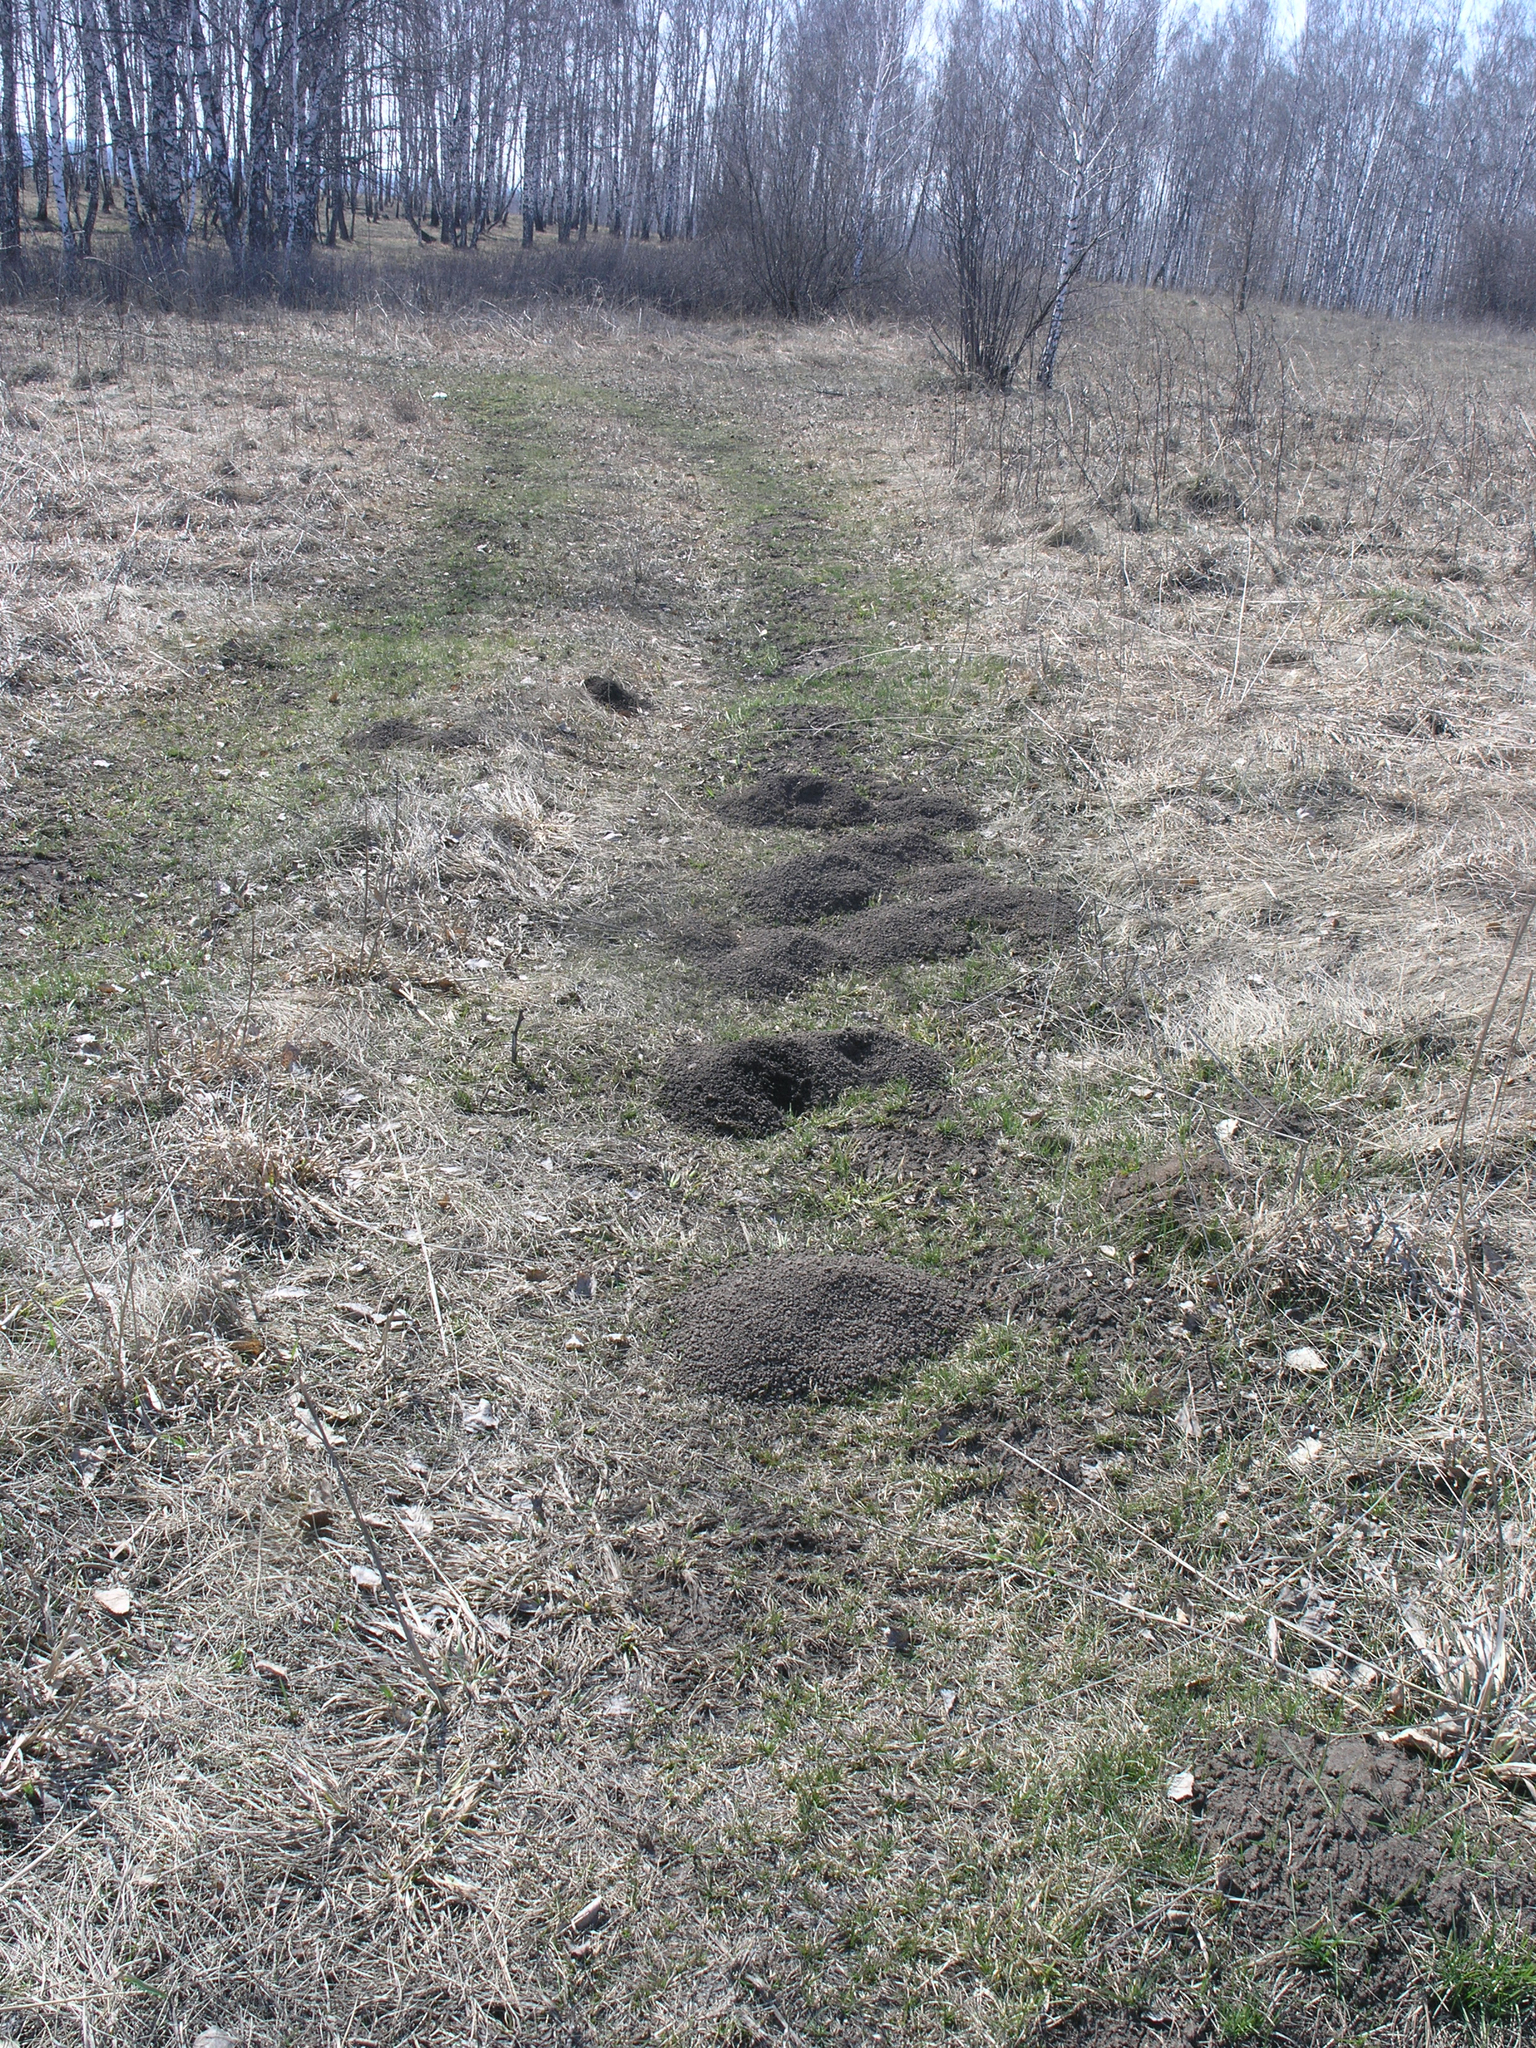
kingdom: Animalia
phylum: Chordata
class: Mammalia
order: Soricomorpha
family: Talpidae
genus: Talpa
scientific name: Talpa altaica
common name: Altai mole
